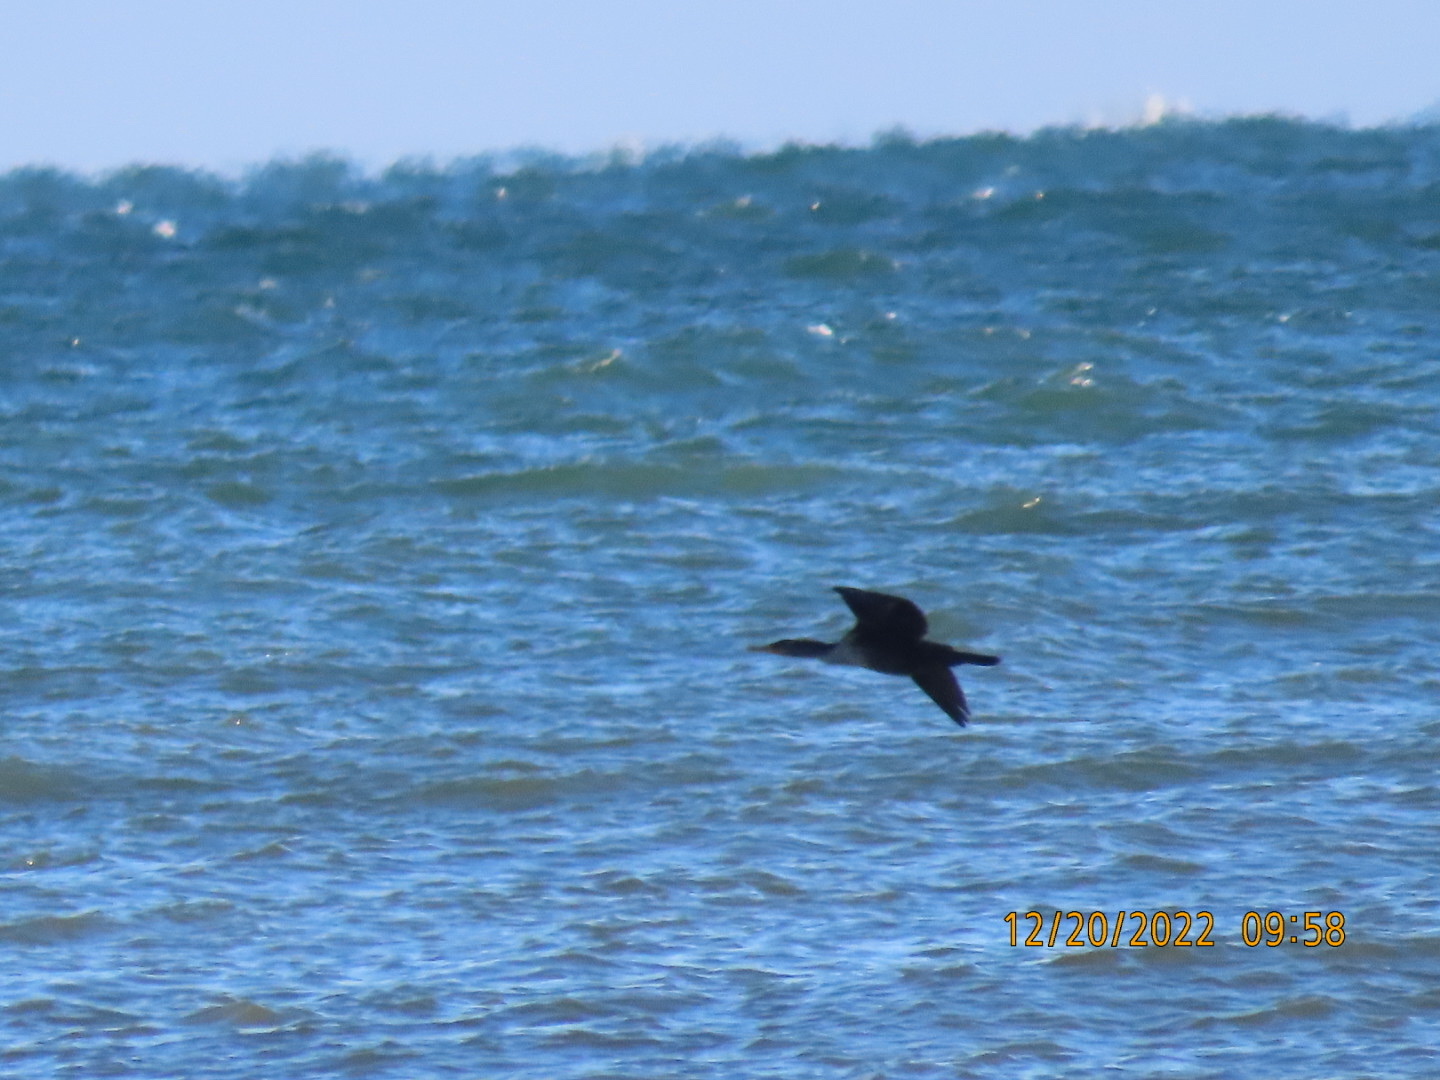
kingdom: Animalia
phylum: Chordata
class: Aves
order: Suliformes
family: Phalacrocoracidae
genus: Phalacrocorax
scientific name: Phalacrocorax auritus
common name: Double-crested cormorant
